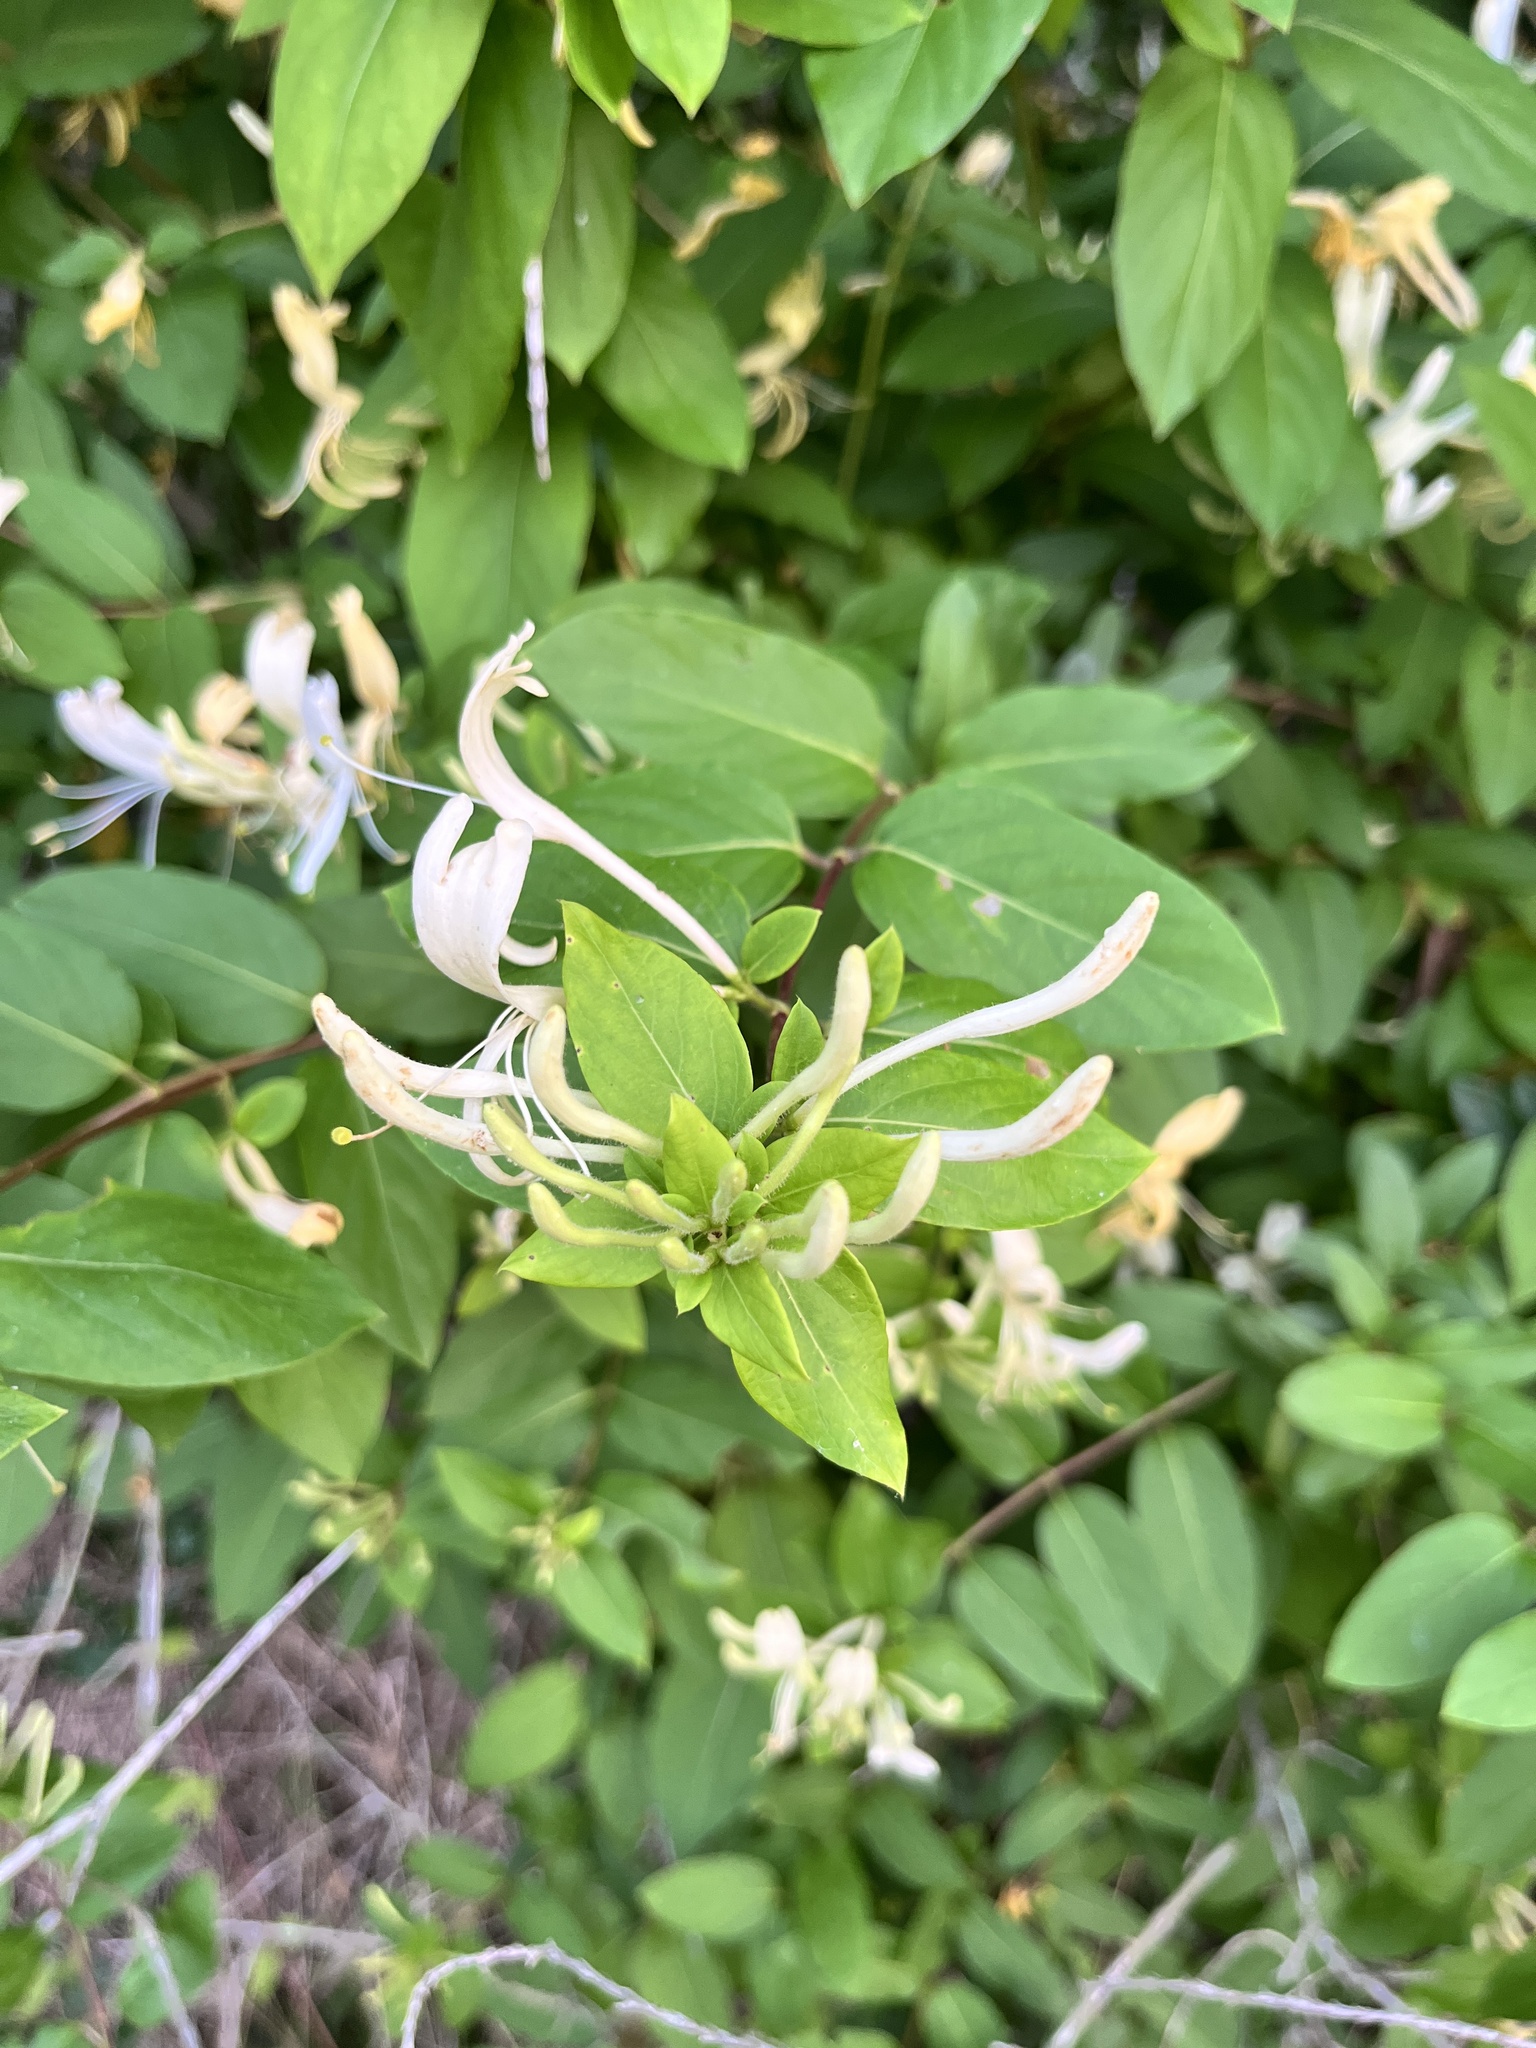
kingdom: Plantae
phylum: Tracheophyta
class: Magnoliopsida
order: Dipsacales
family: Caprifoliaceae
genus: Lonicera
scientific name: Lonicera japonica
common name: Japanese honeysuckle
